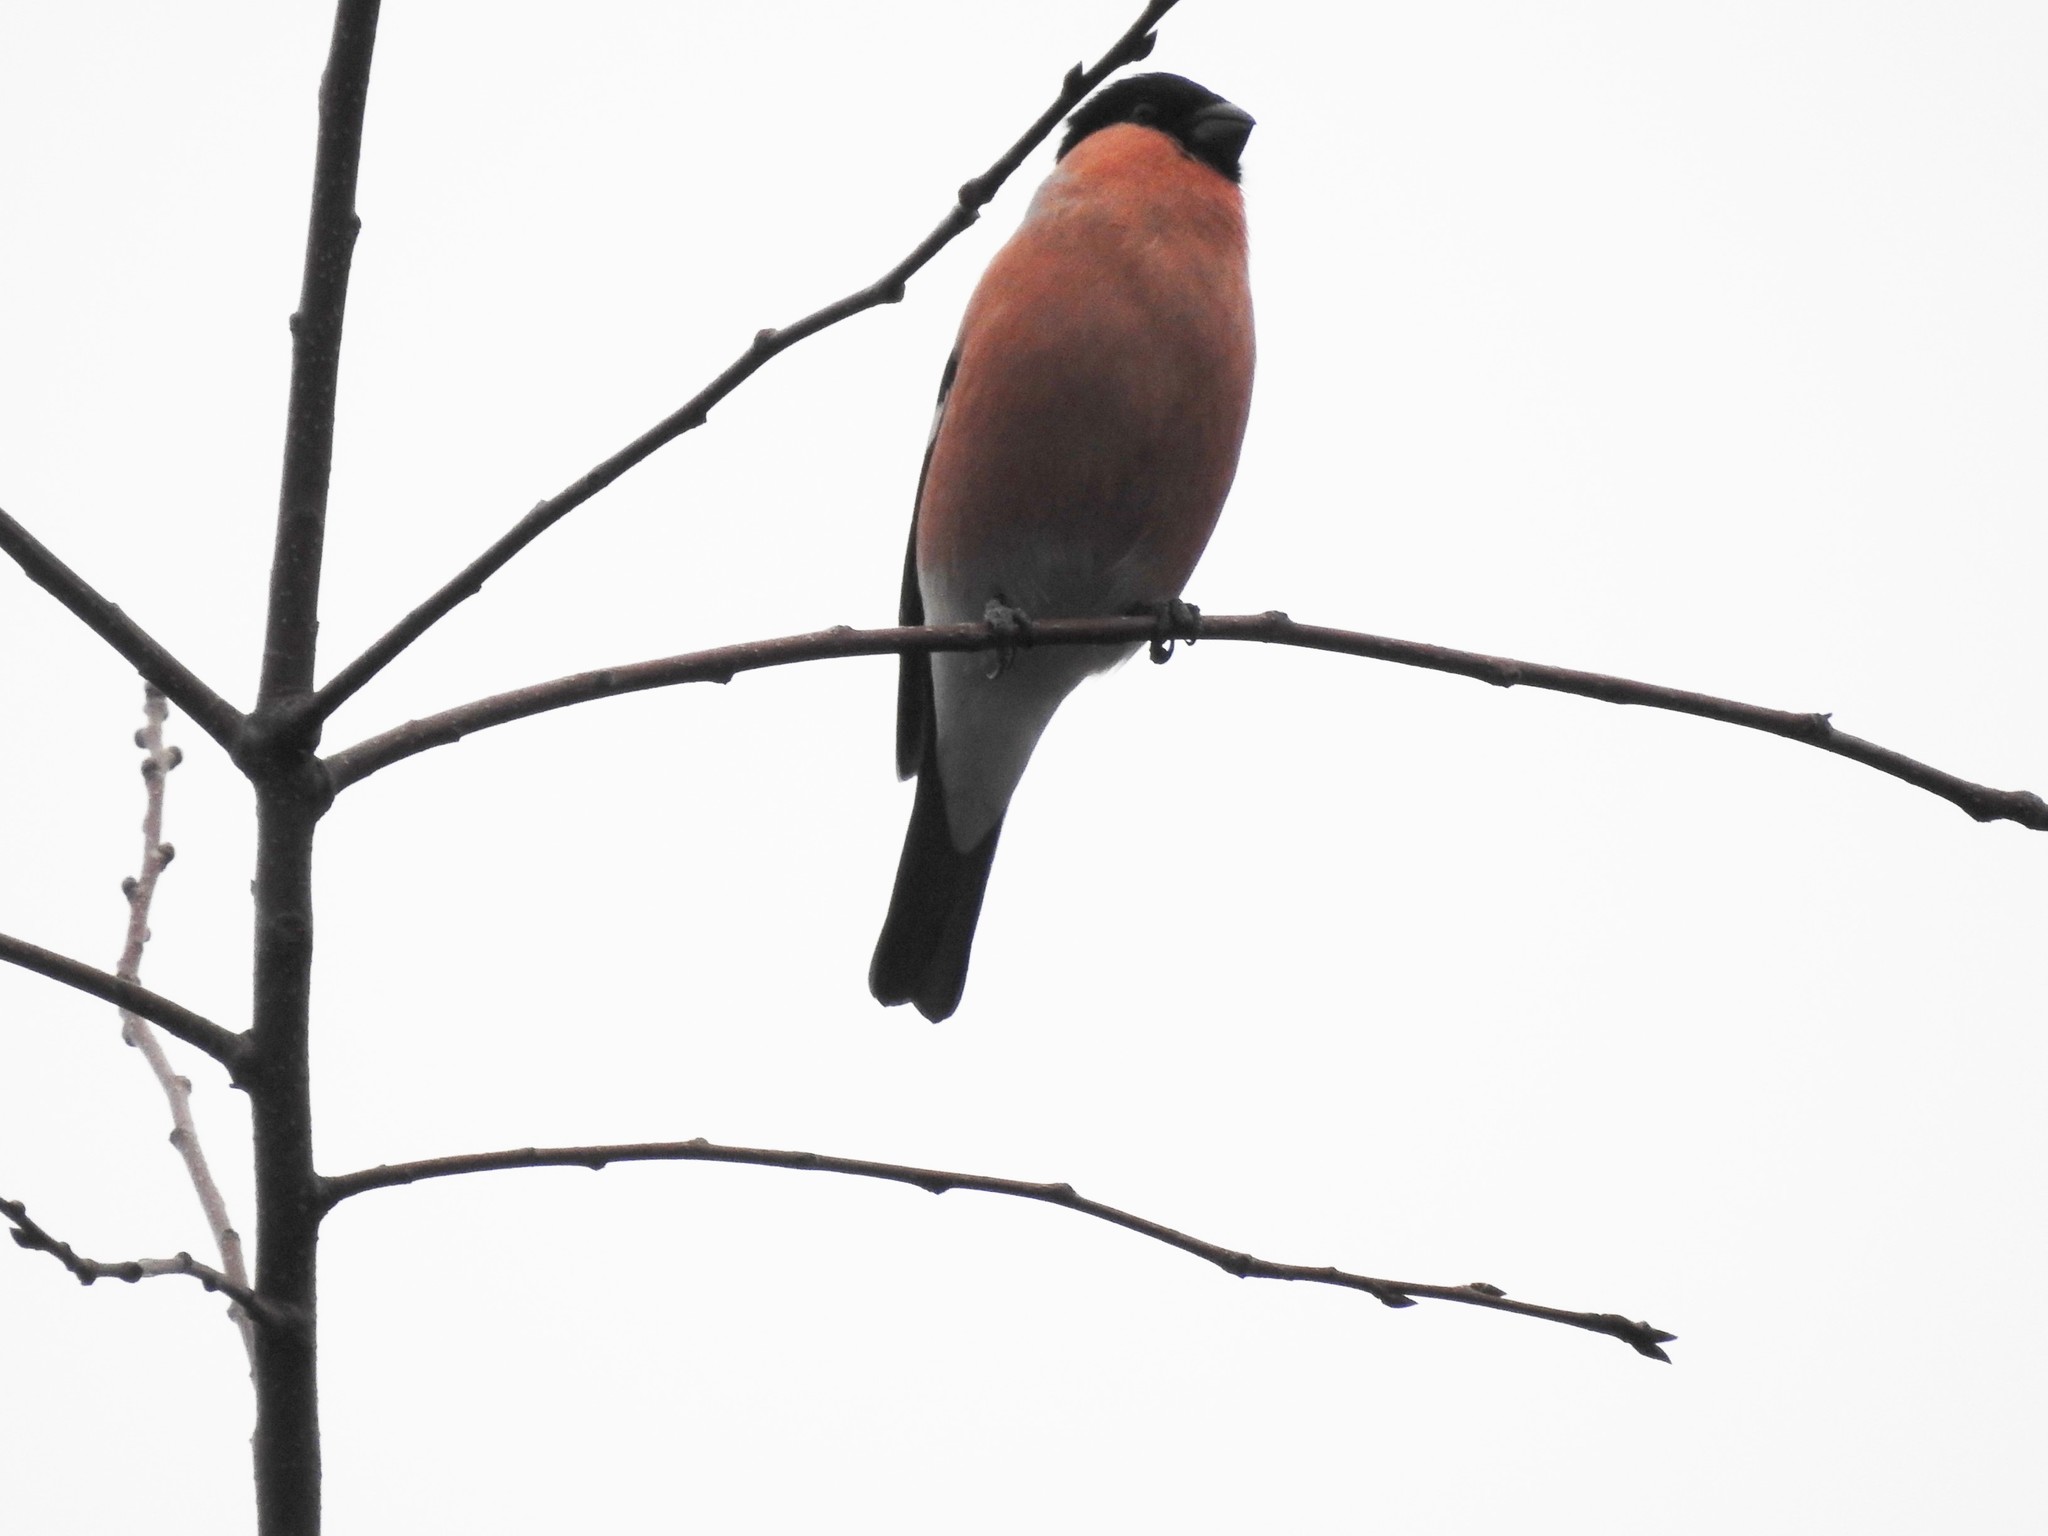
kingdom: Animalia
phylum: Chordata
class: Aves
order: Passeriformes
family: Fringillidae
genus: Pyrrhula
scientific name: Pyrrhula pyrrhula
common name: Eurasian bullfinch
